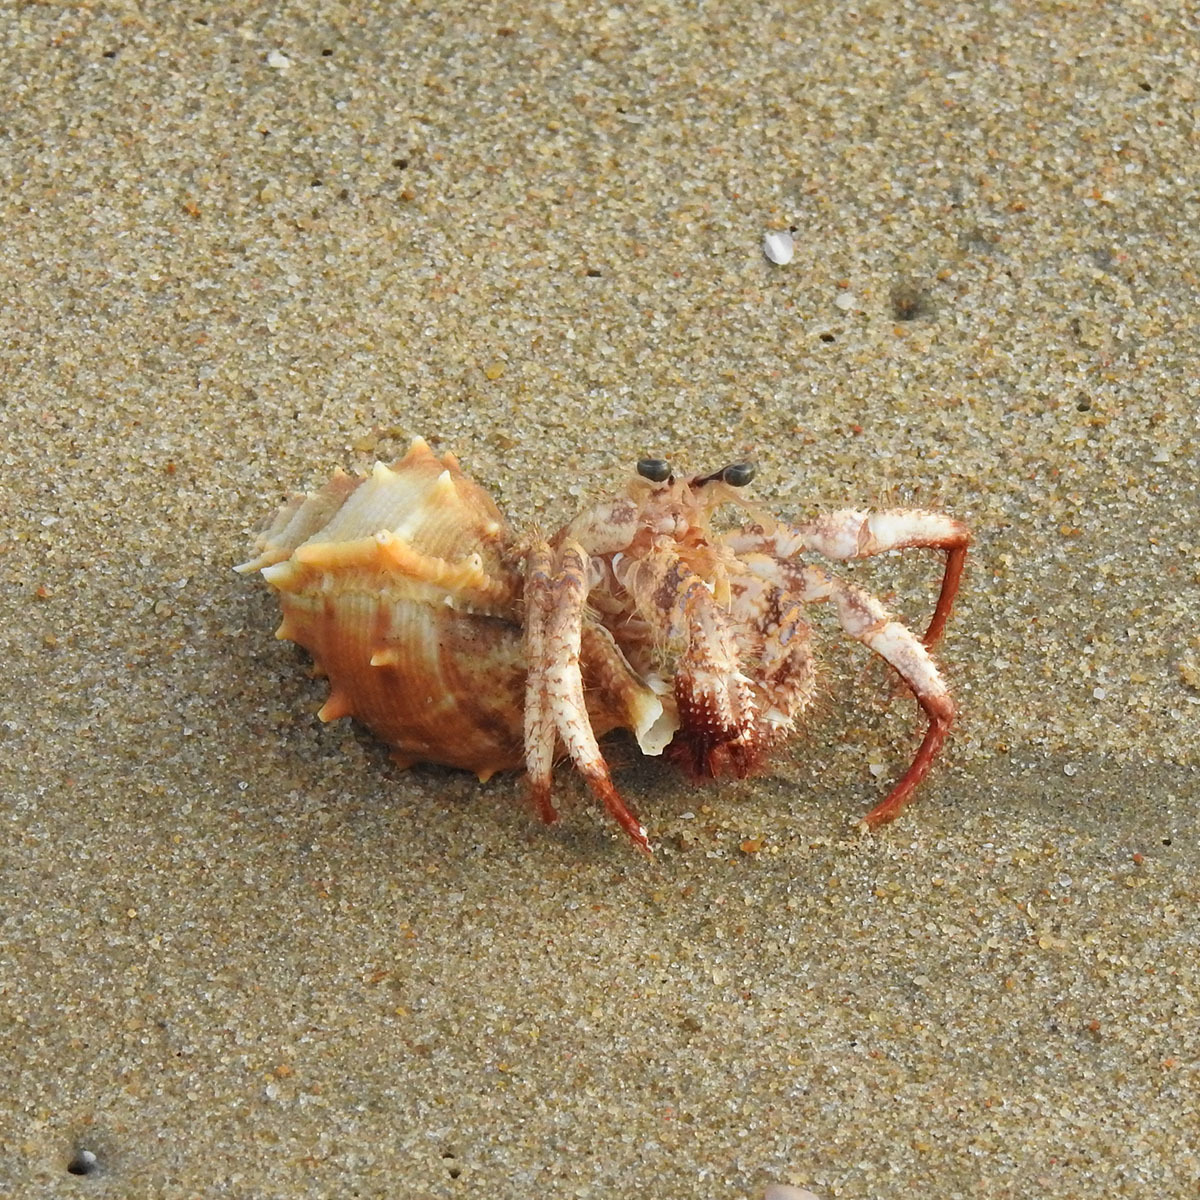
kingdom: Animalia
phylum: Arthropoda
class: Malacostraca
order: Decapoda
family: Diogenidae
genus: Dardanus
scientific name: Dardanus hessii
